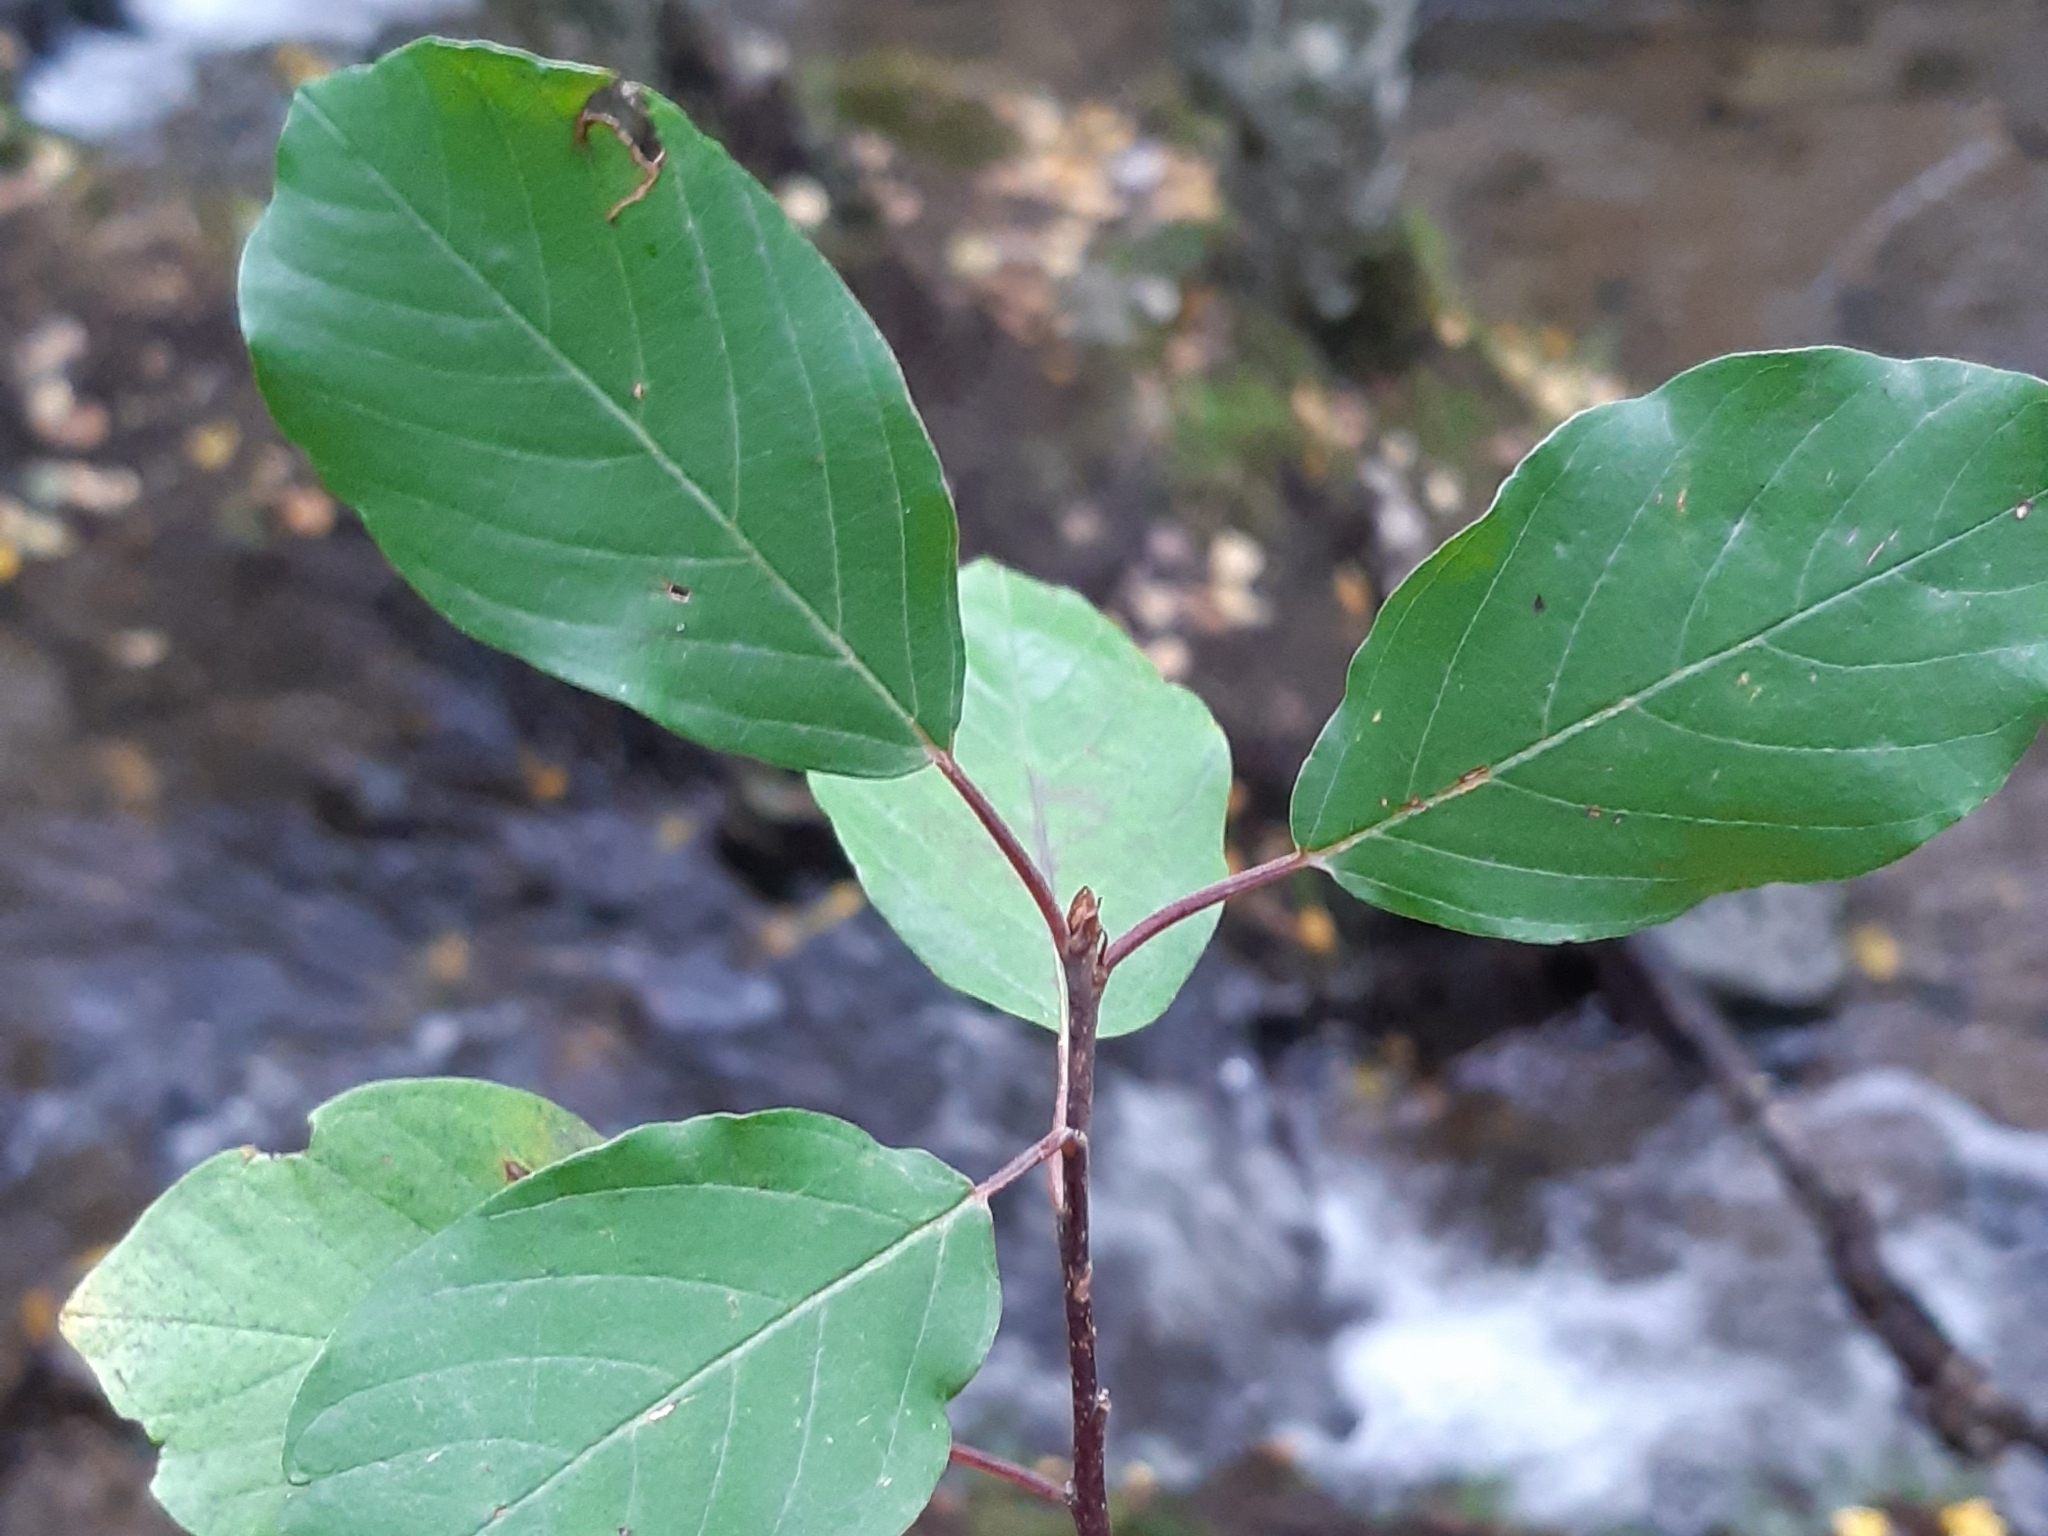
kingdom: Plantae
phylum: Tracheophyta
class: Magnoliopsida
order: Rosales
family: Rhamnaceae
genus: Frangula
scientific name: Frangula alnus
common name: Alder buckthorn
